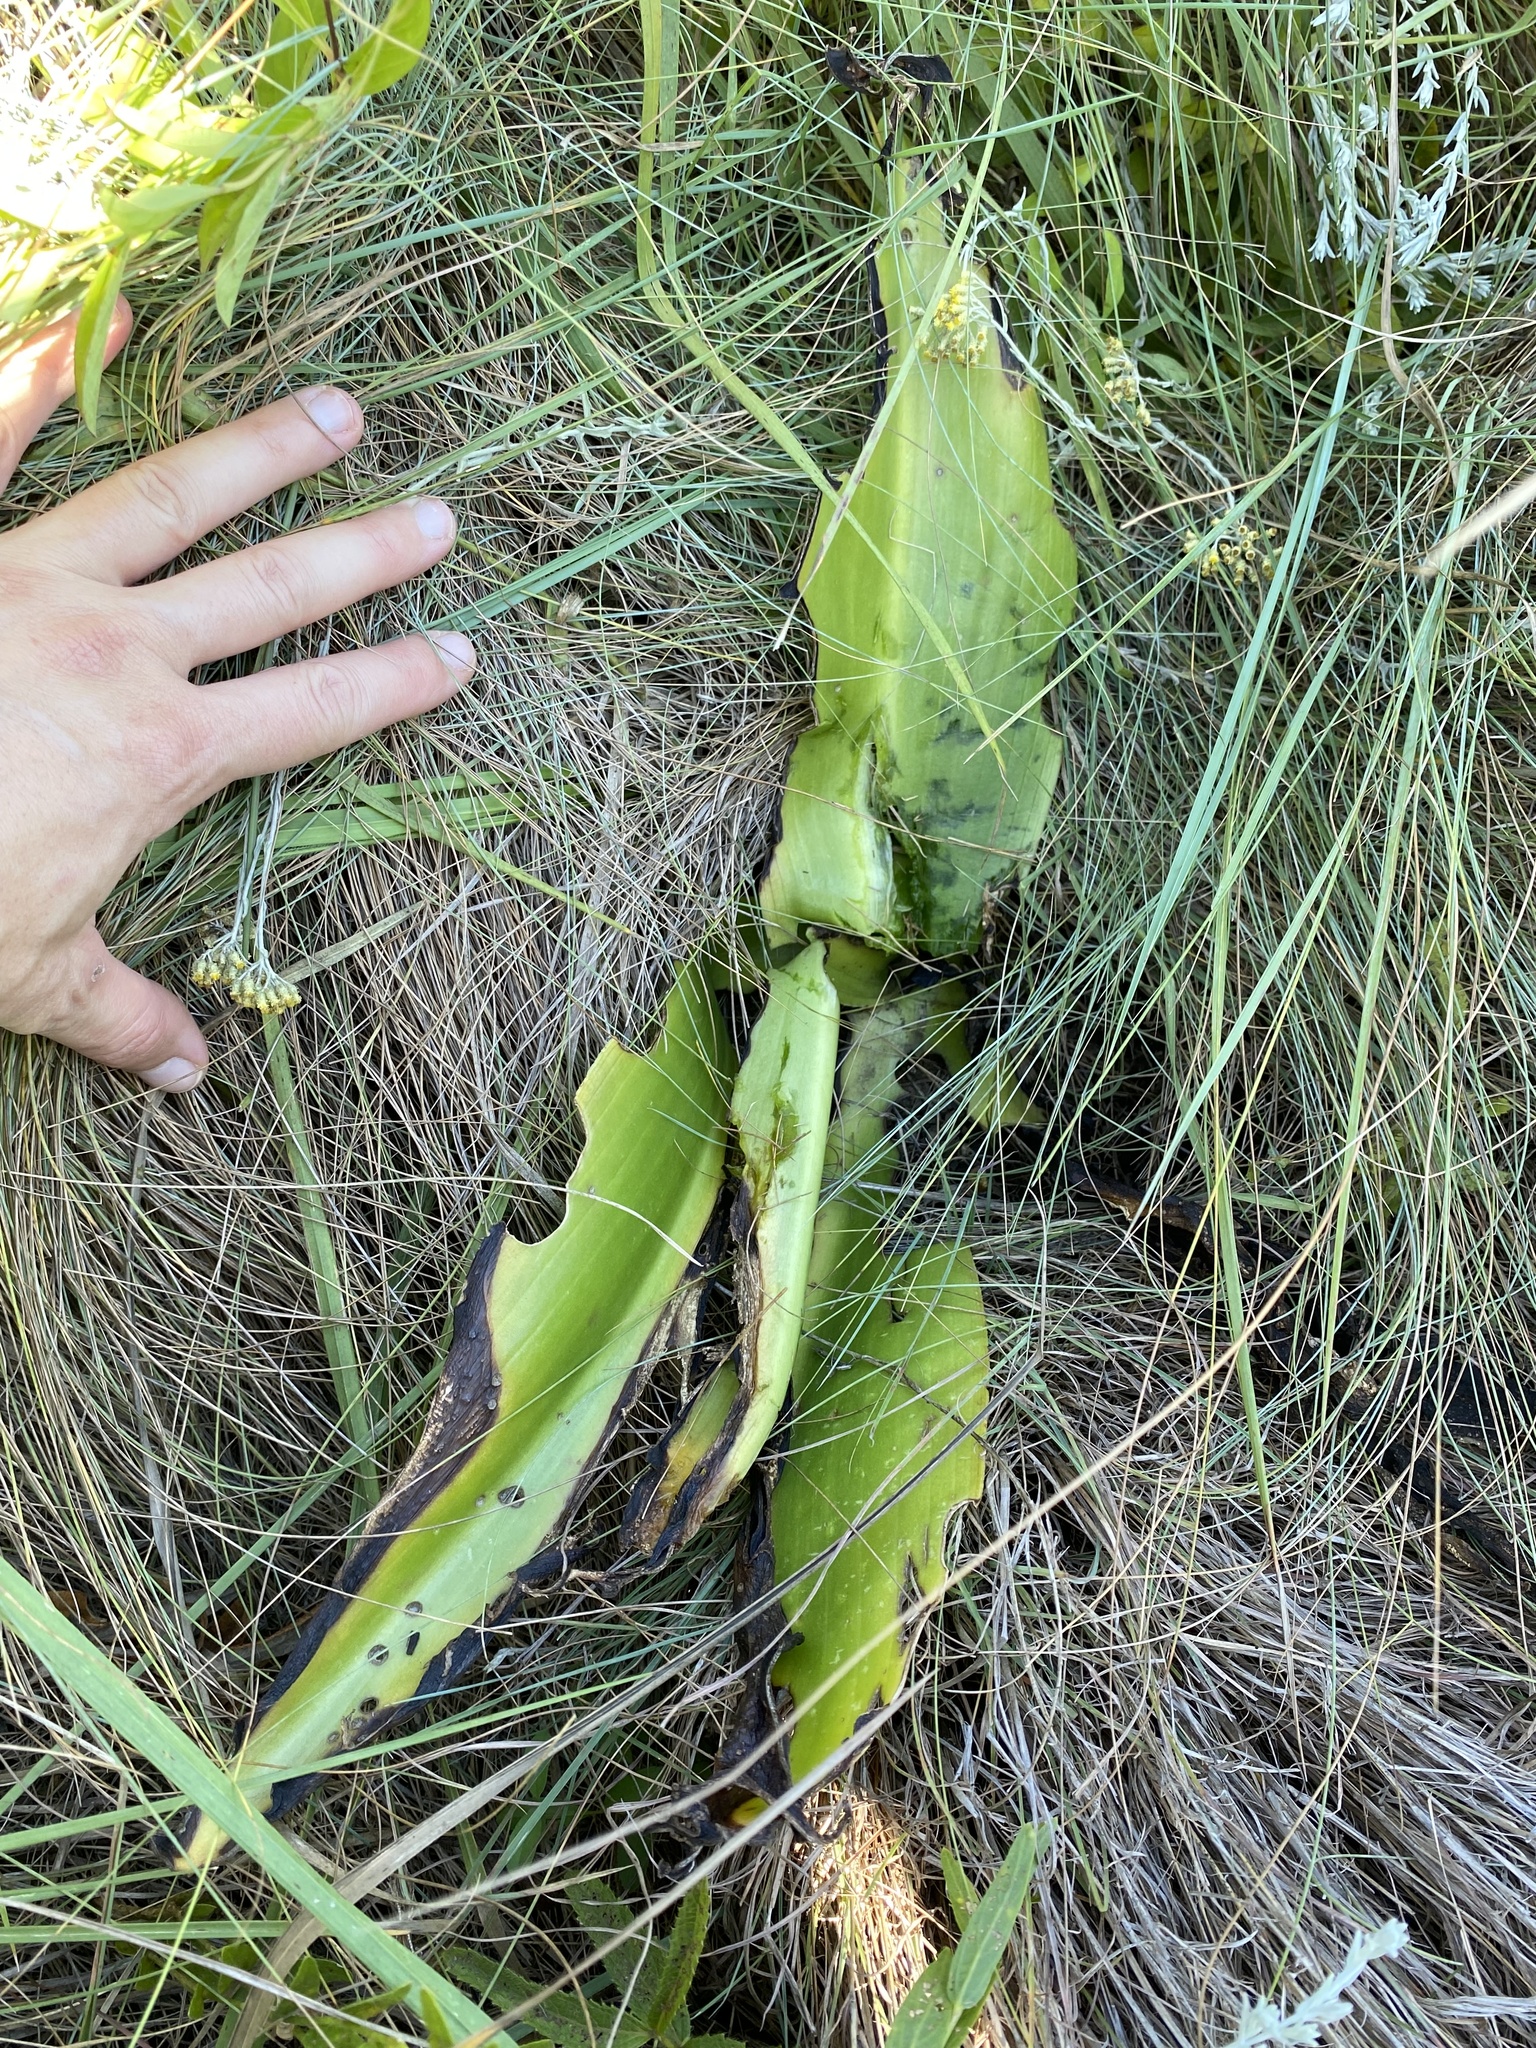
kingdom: Plantae
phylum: Tracheophyta
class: Liliopsida
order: Asparagales
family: Asparagaceae
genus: Eucomis
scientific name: Eucomis autumnalis
